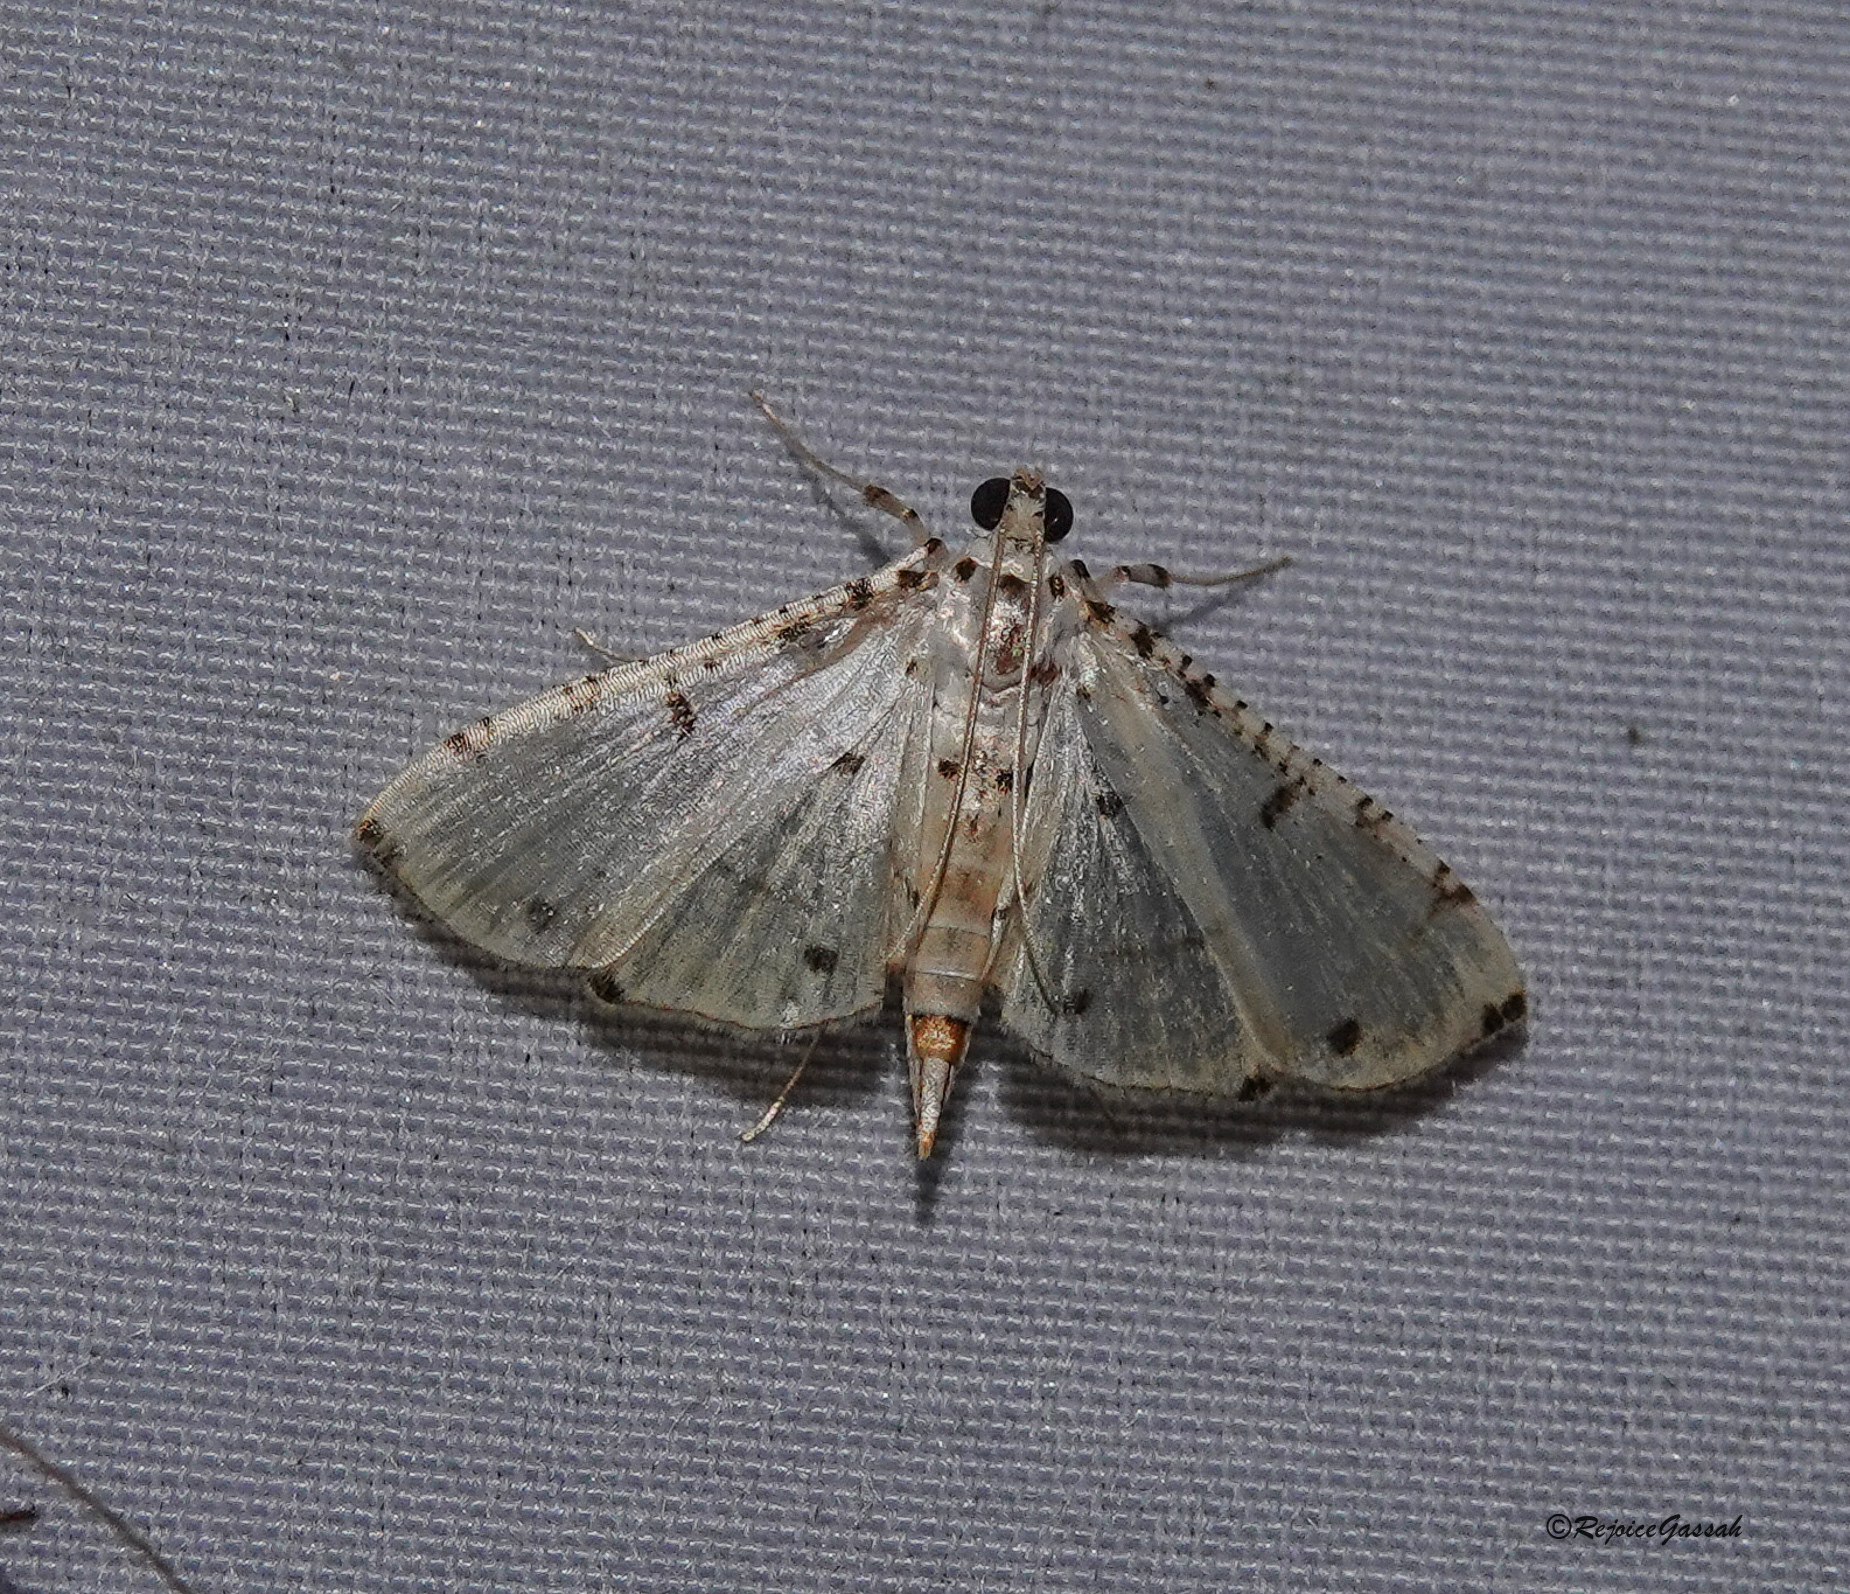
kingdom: Animalia
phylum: Arthropoda
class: Insecta
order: Lepidoptera
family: Crambidae
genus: Pycnarmon
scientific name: Pycnarmon cribrata
